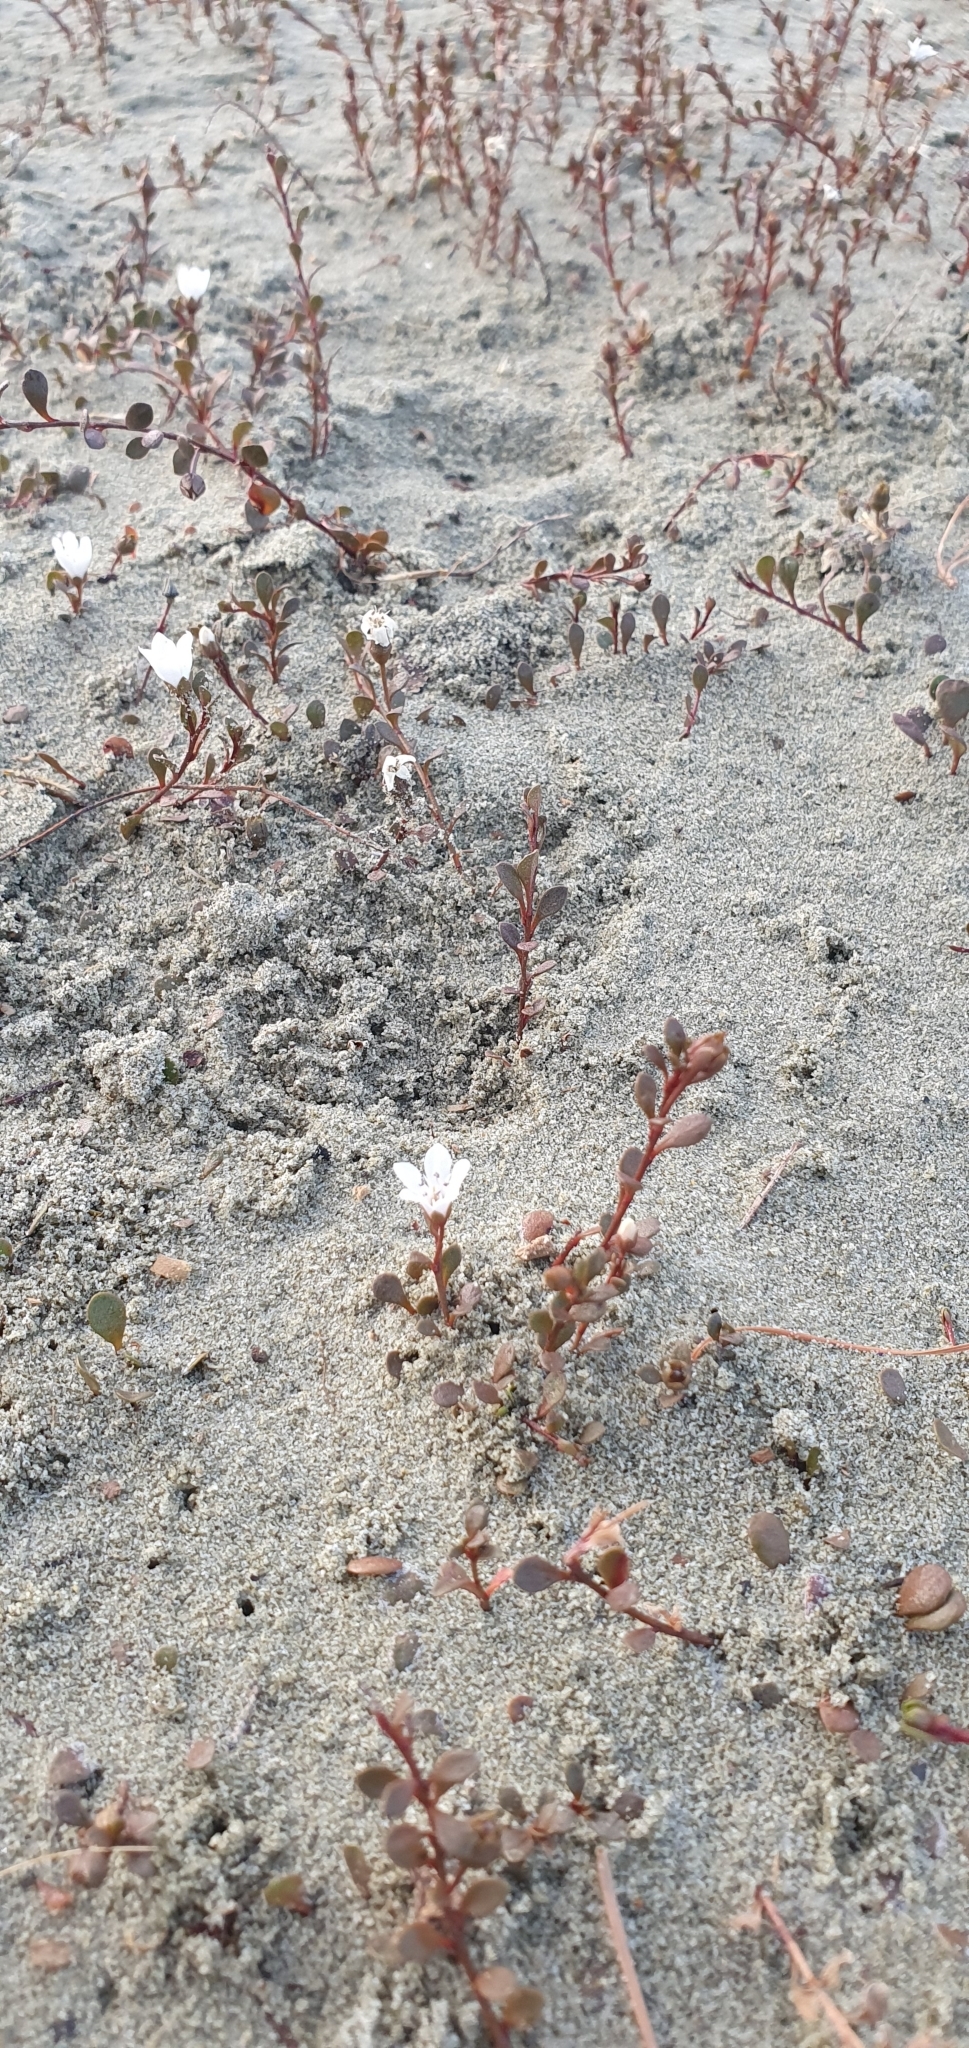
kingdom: Plantae
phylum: Tracheophyta
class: Magnoliopsida
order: Ericales
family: Primulaceae
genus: Samolus
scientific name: Samolus repens
